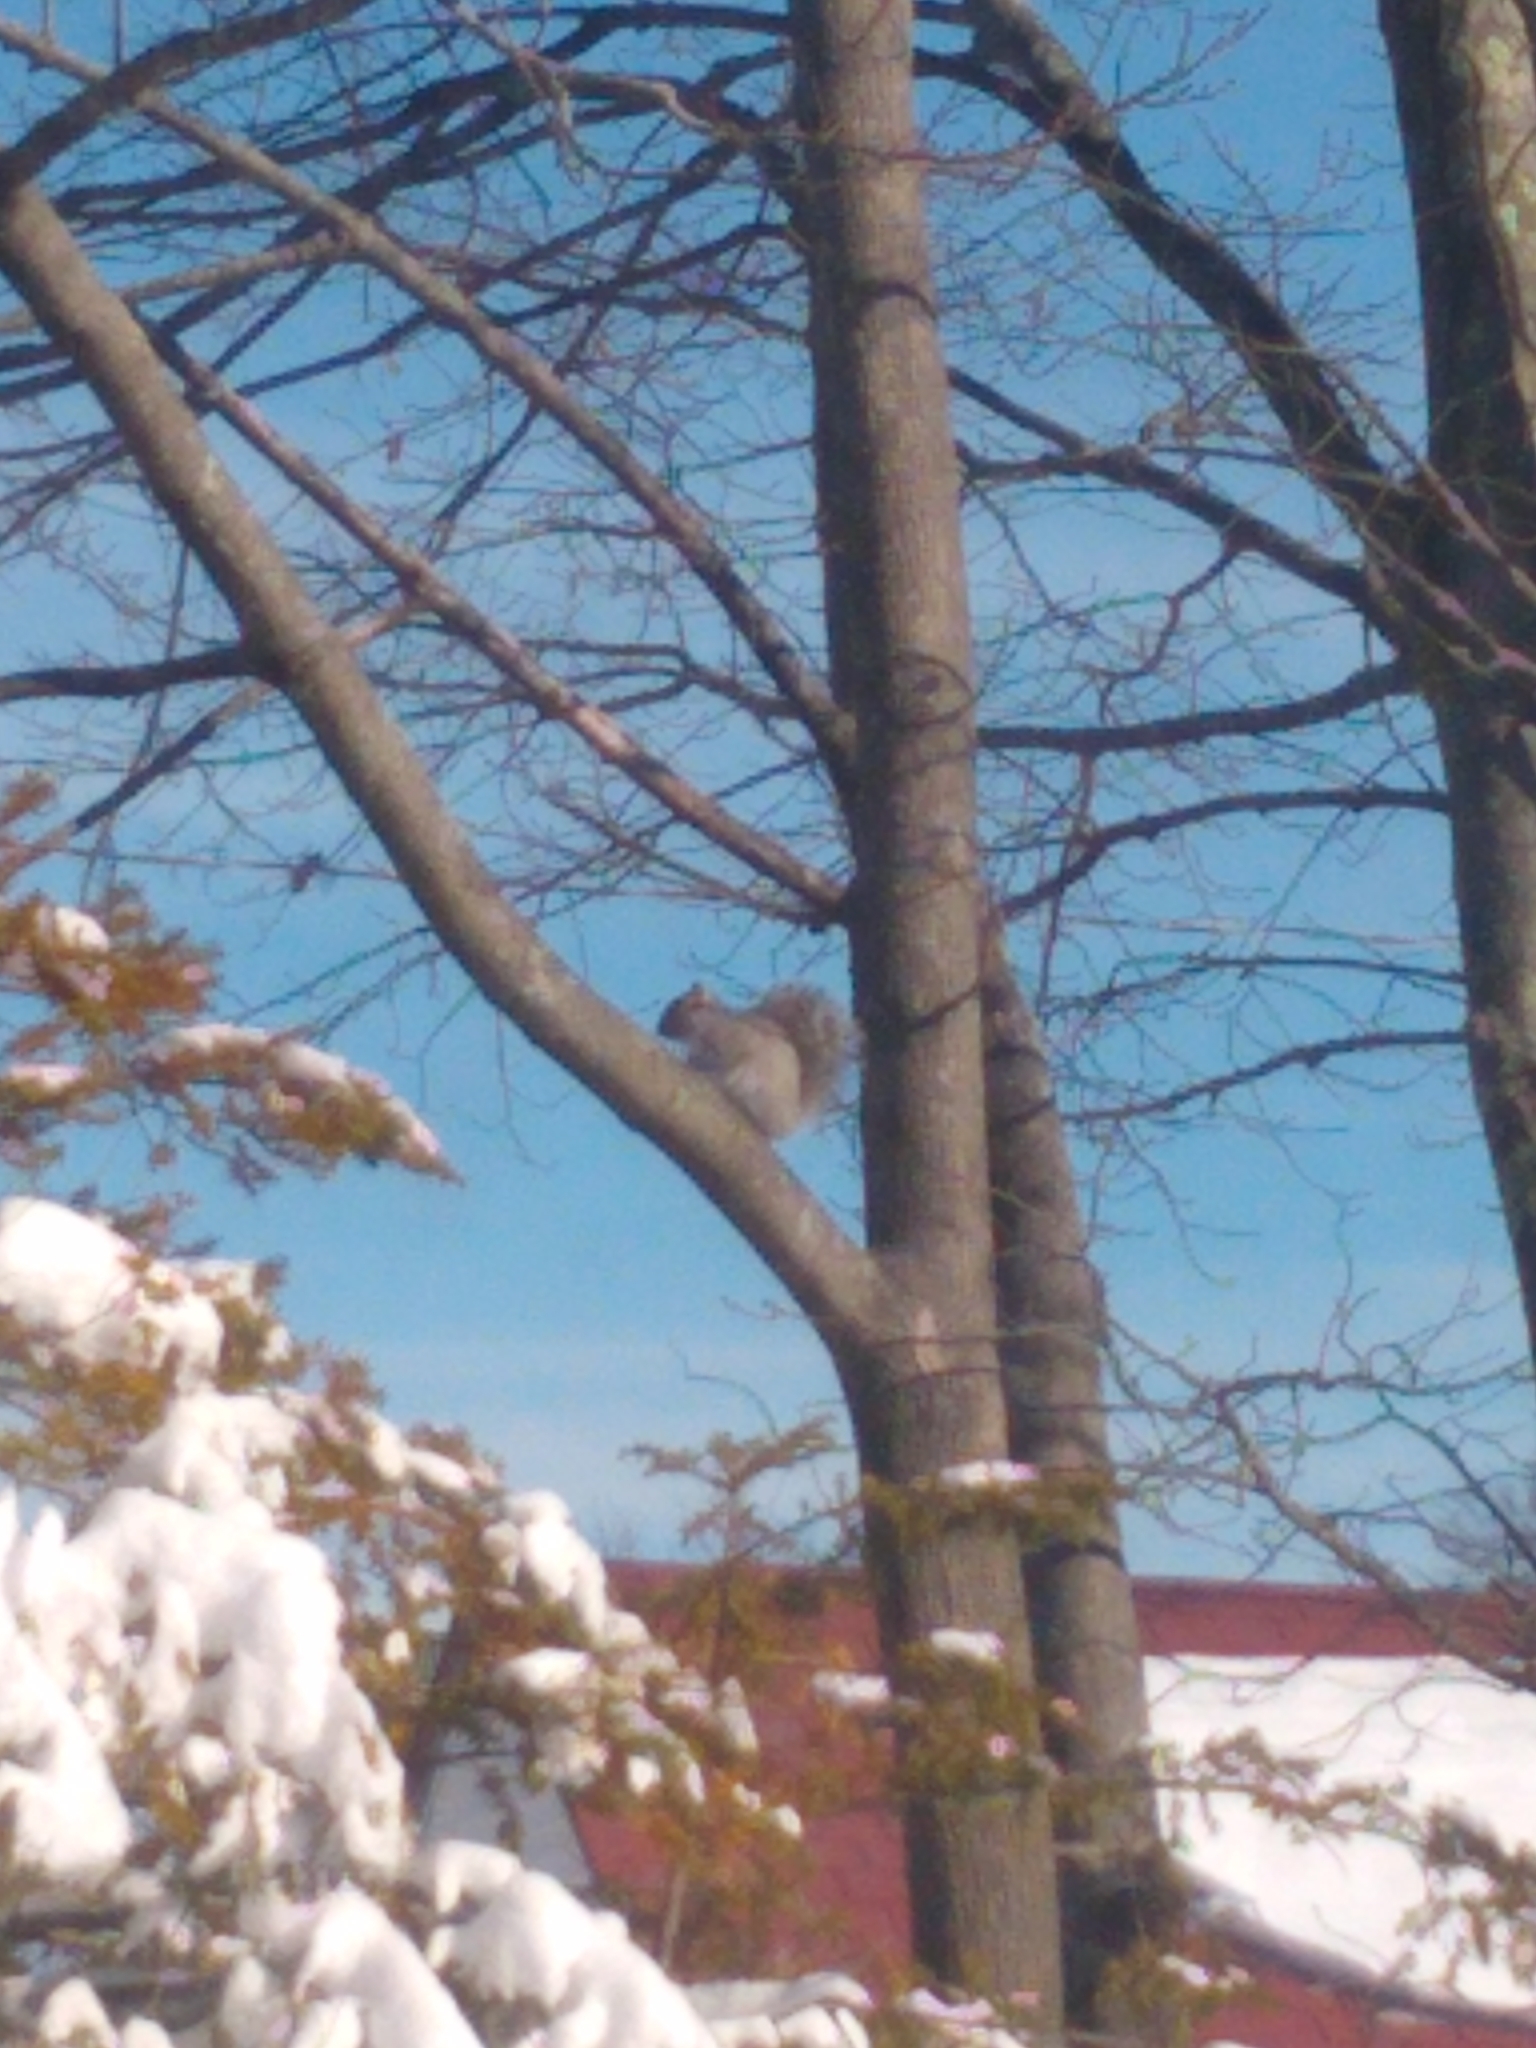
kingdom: Animalia
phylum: Chordata
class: Mammalia
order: Rodentia
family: Sciuridae
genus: Sciurus
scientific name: Sciurus carolinensis
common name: Eastern gray squirrel
